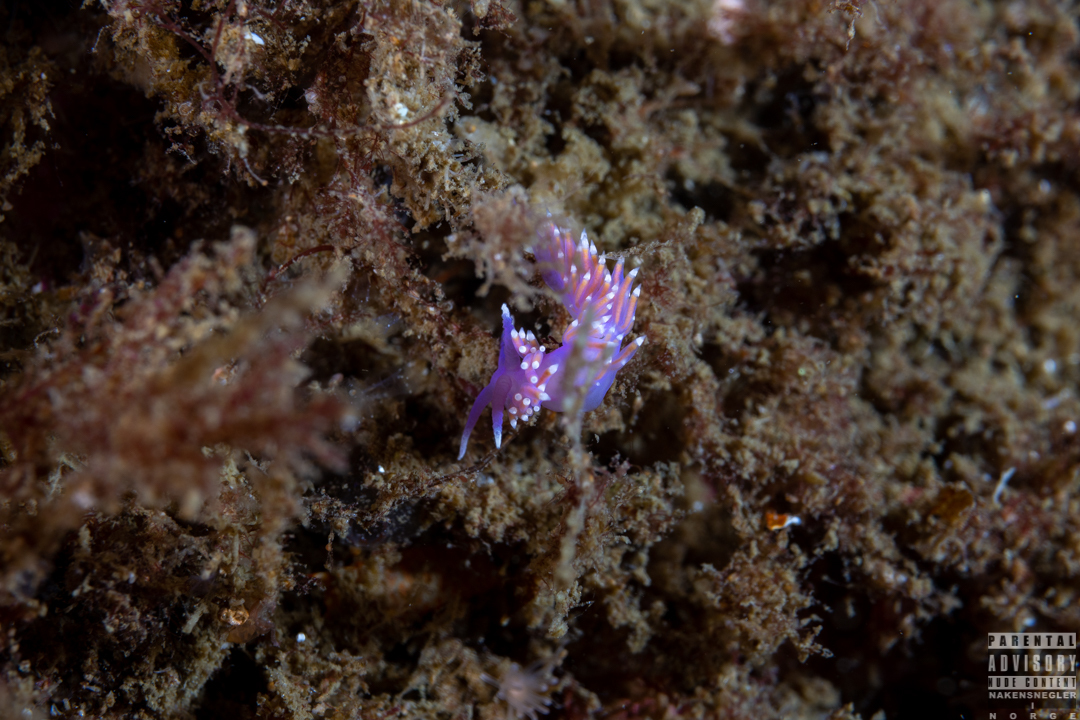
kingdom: Animalia
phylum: Mollusca
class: Gastropoda
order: Nudibranchia
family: Flabellinidae
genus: Edmundsella
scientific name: Edmundsella pedata
